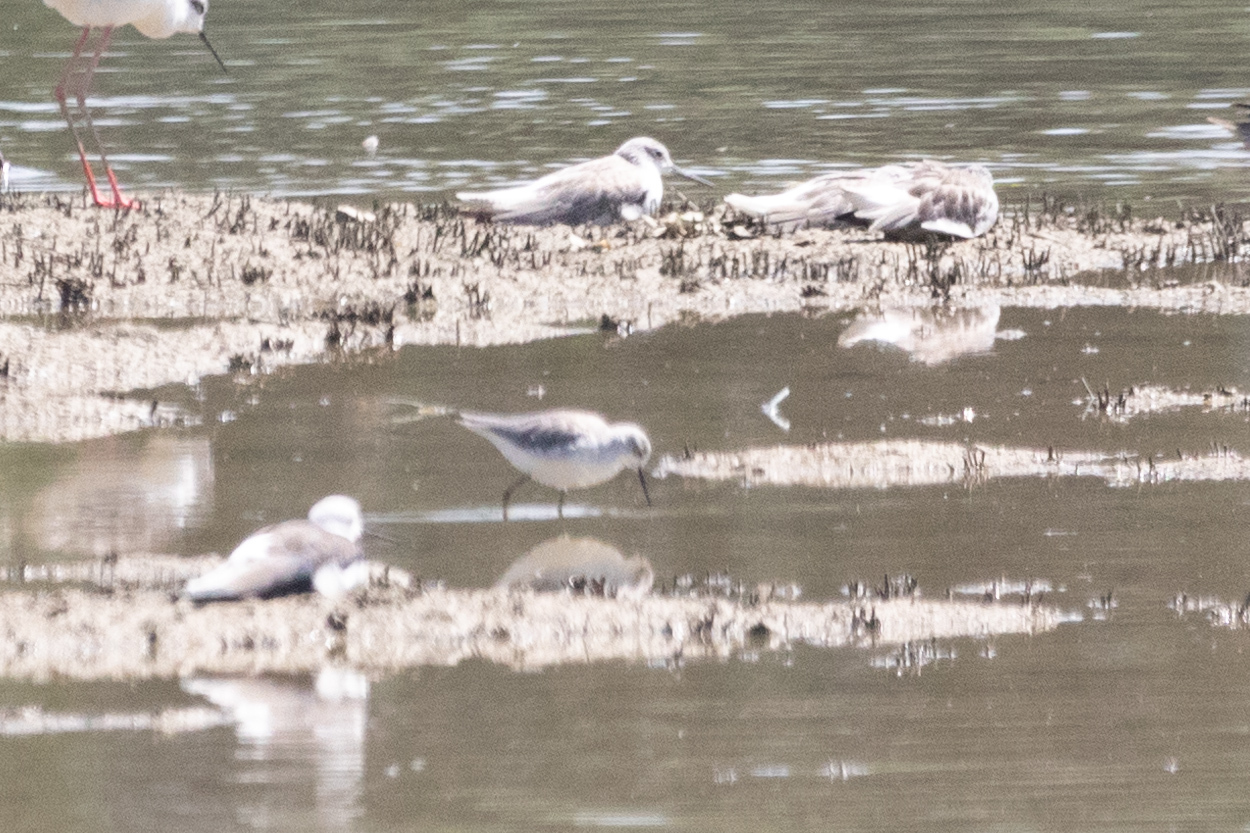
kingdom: Animalia
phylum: Chordata
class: Aves
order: Charadriiformes
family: Scolopacidae
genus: Tringa
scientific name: Tringa stagnatilis
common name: Marsh sandpiper
